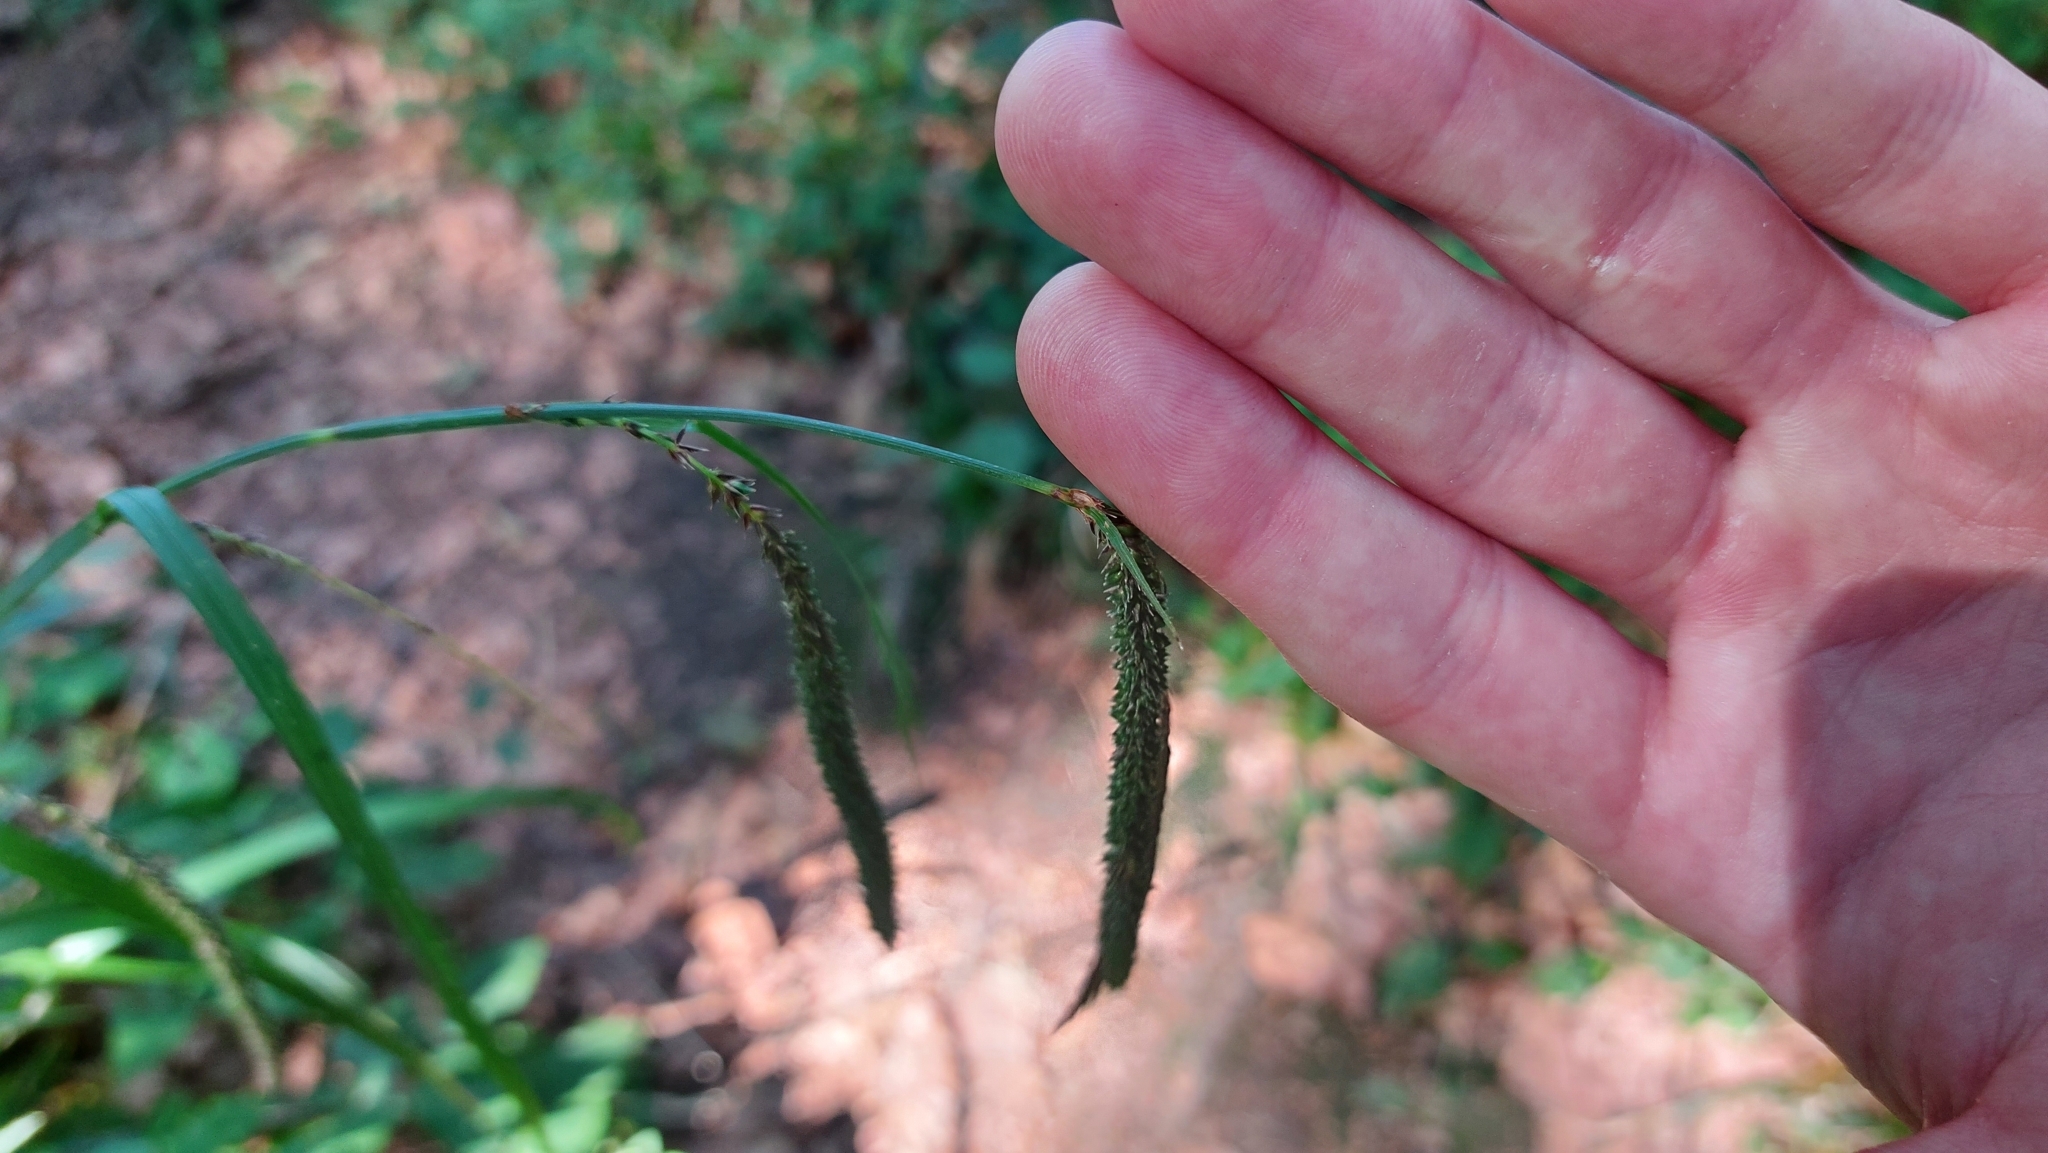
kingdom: Plantae
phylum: Tracheophyta
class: Liliopsida
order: Poales
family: Cyperaceae
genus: Carex
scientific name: Carex pendula
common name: Pendulous sedge
